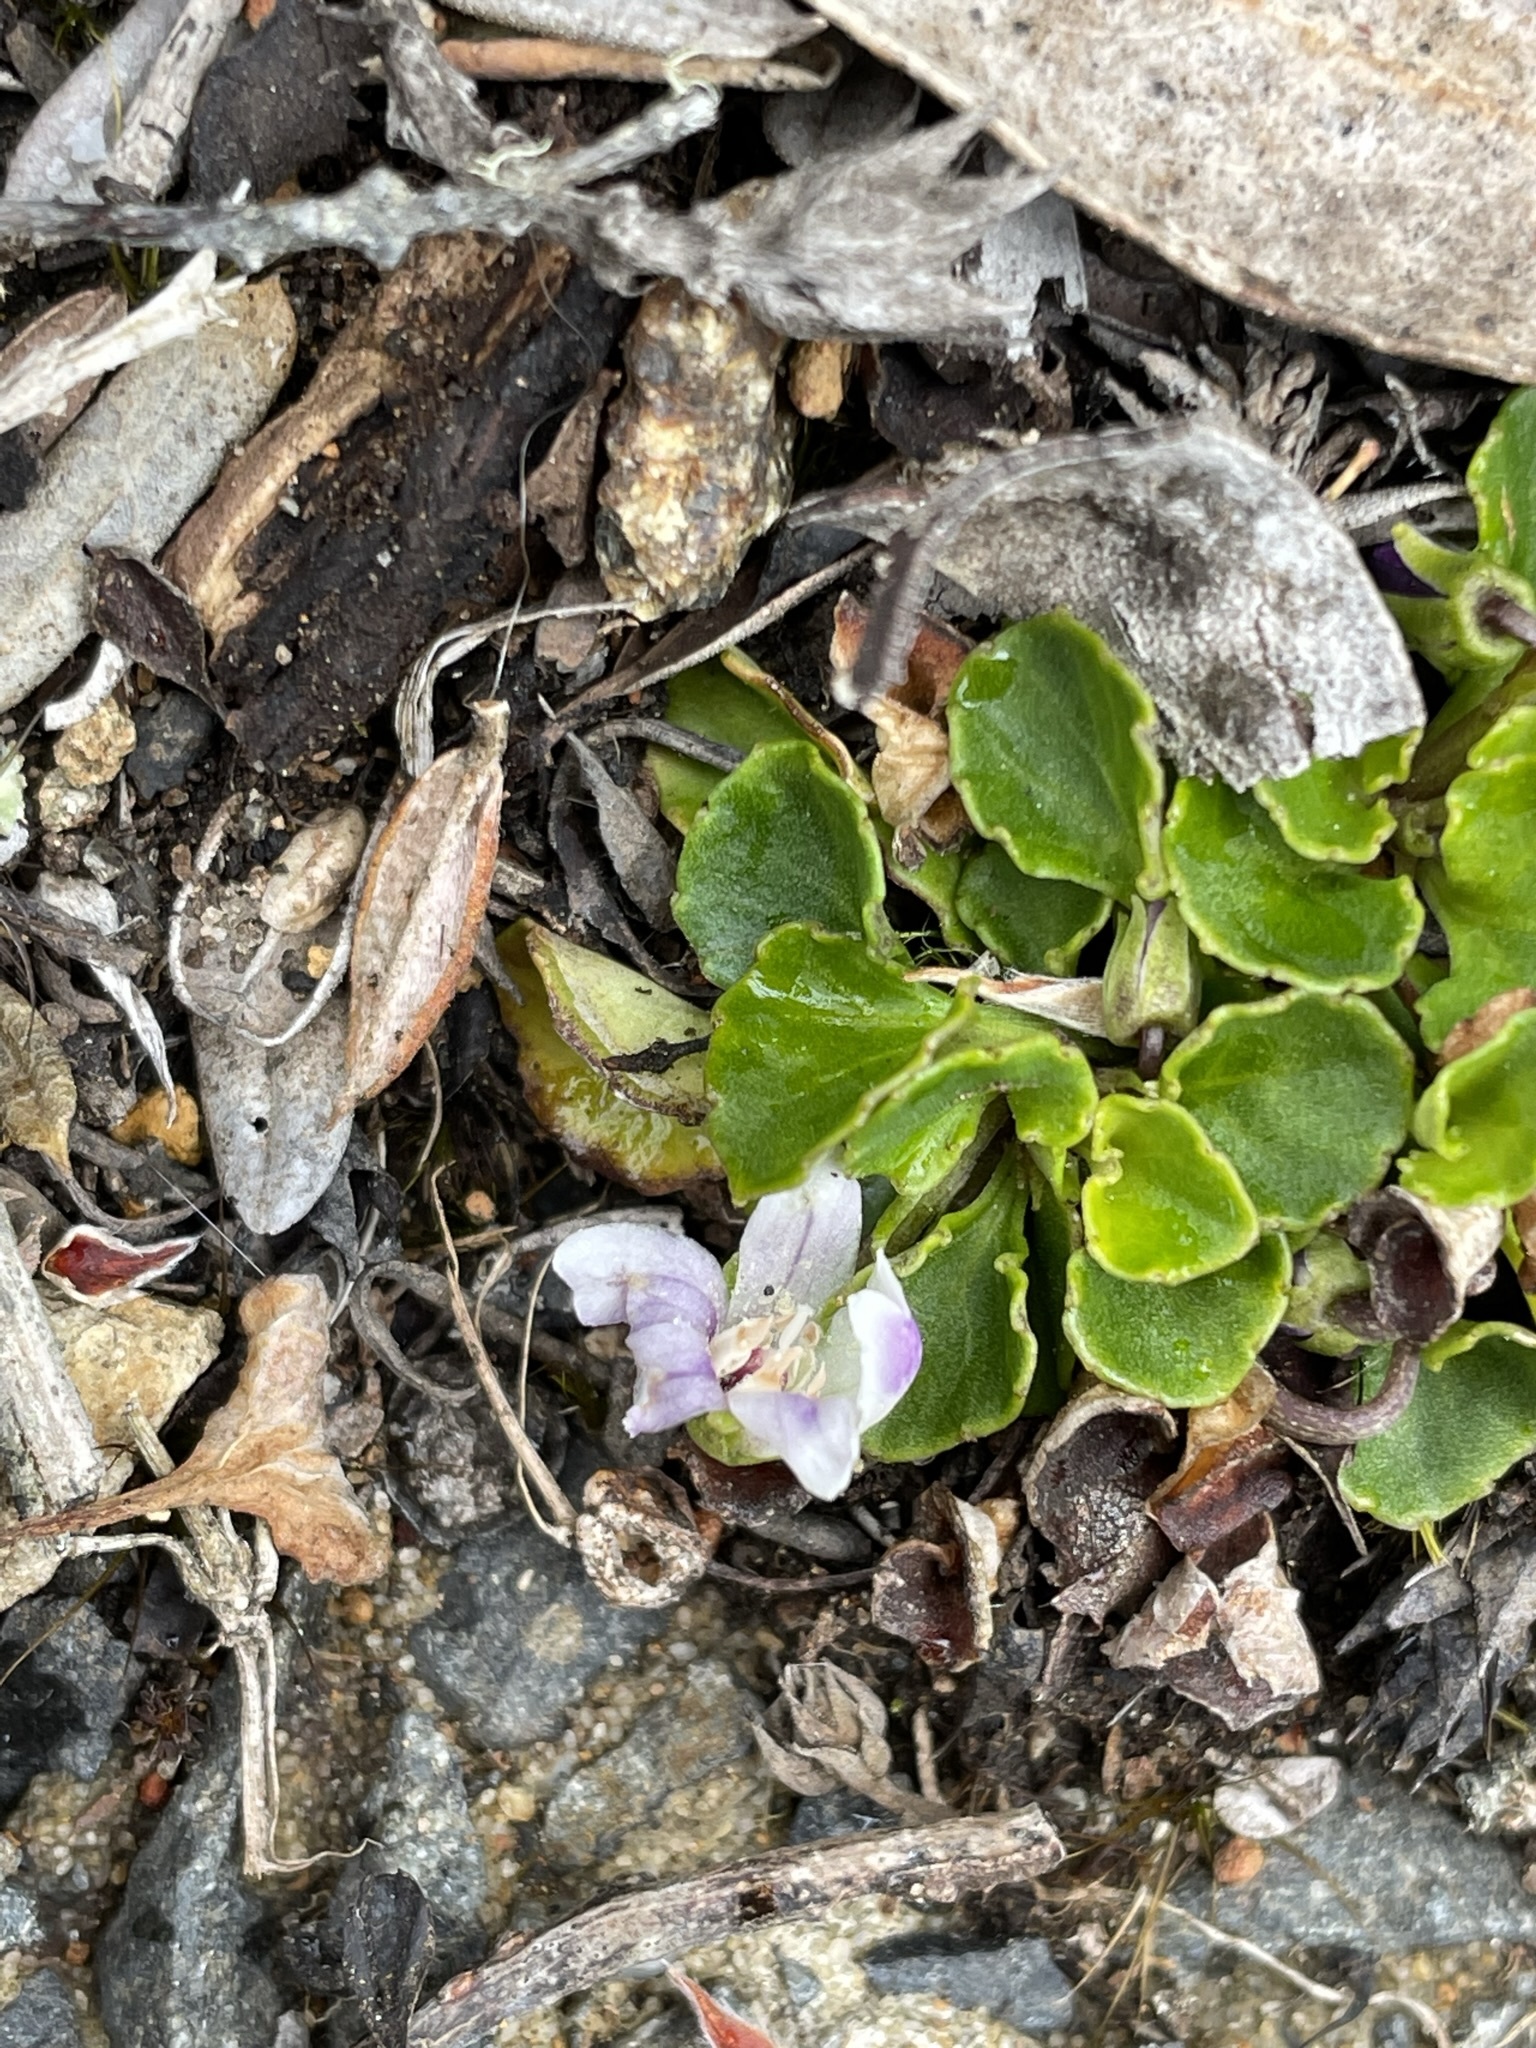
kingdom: Plantae
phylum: Tracheophyta
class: Magnoliopsida
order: Malpighiales
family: Violaceae
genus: Viola
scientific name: Viola curtisiae
